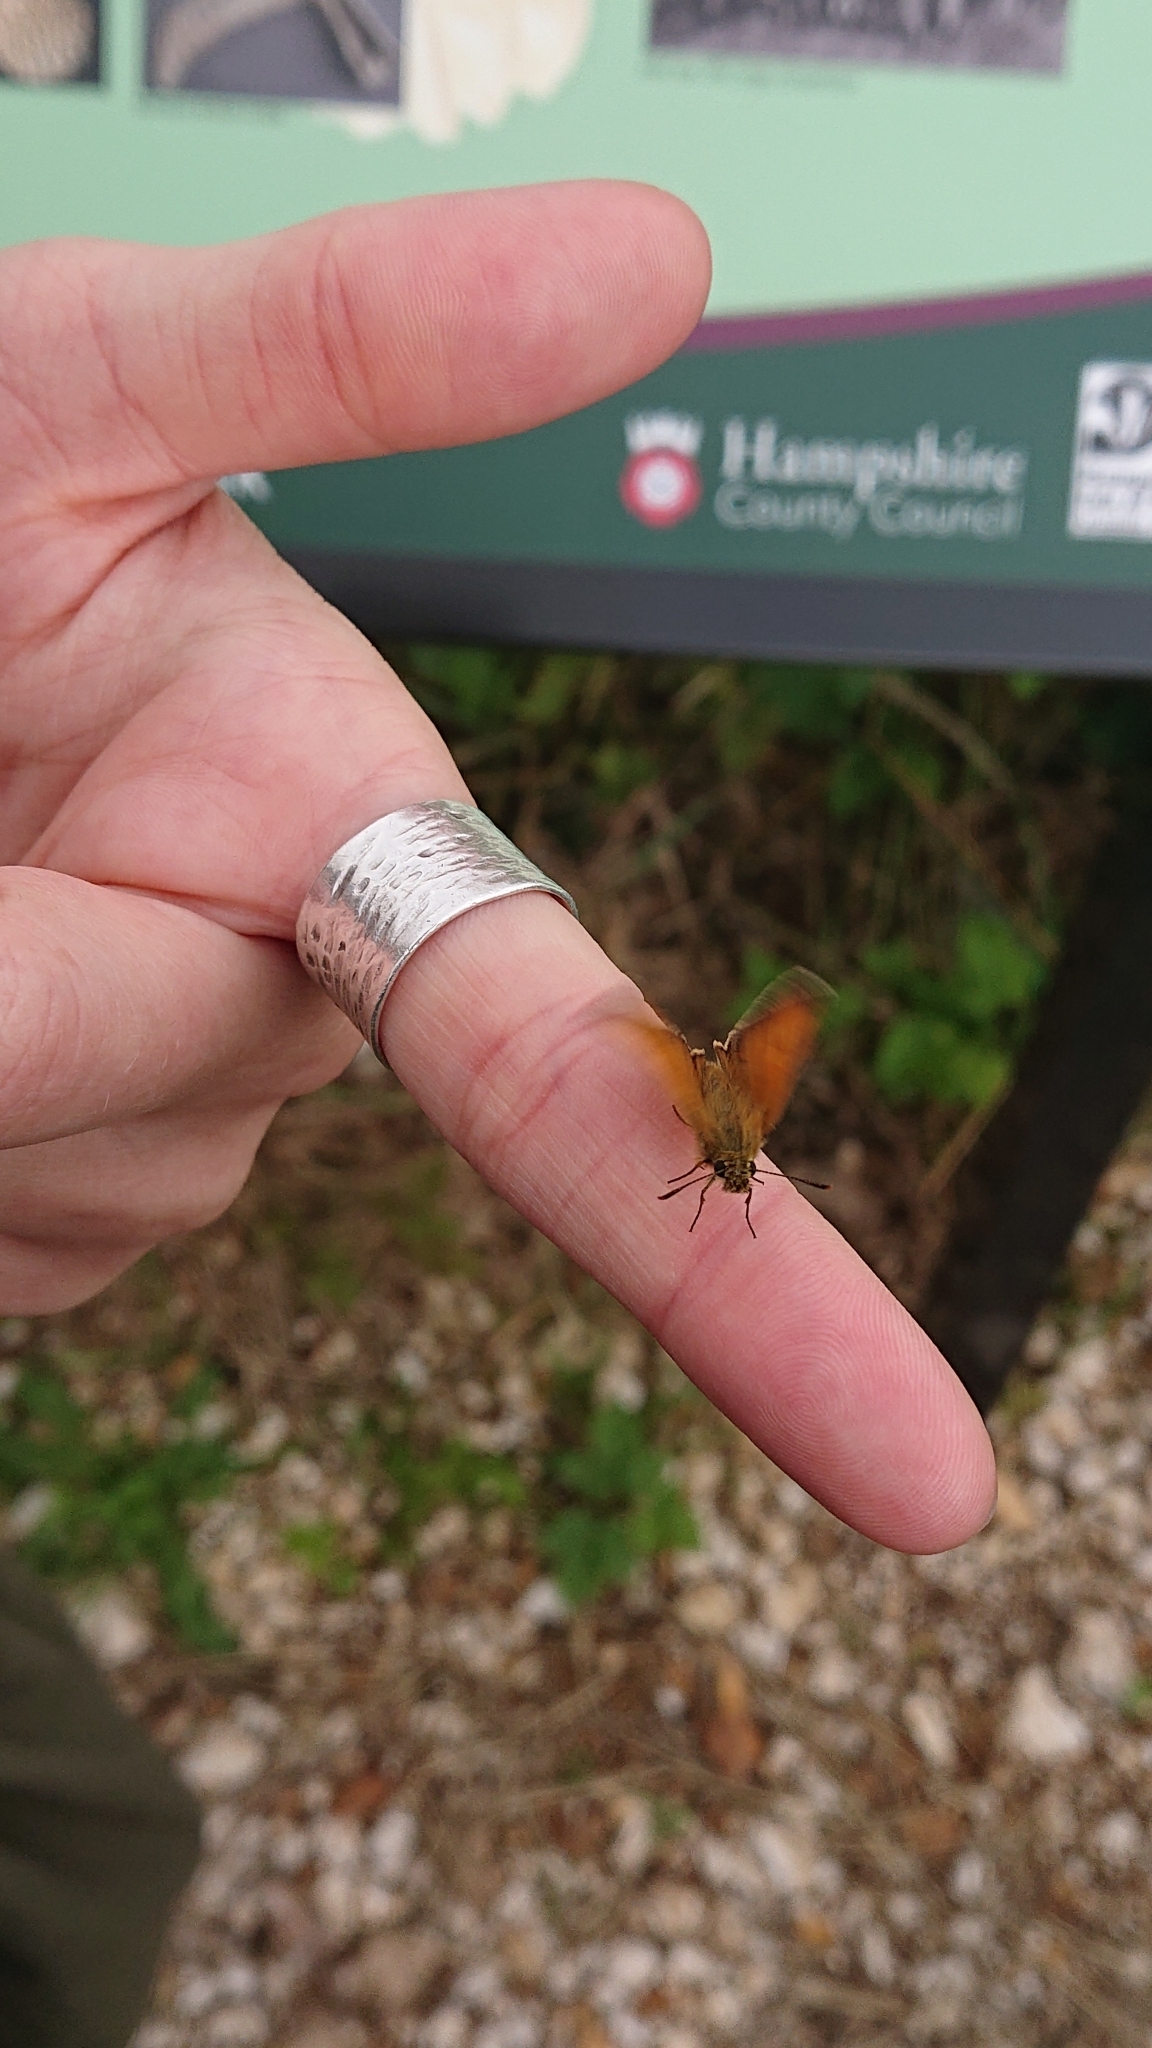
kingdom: Animalia
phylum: Arthropoda
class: Insecta
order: Lepidoptera
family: Hesperiidae
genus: Thymelicus
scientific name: Thymelicus sylvestris
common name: Small skipper
